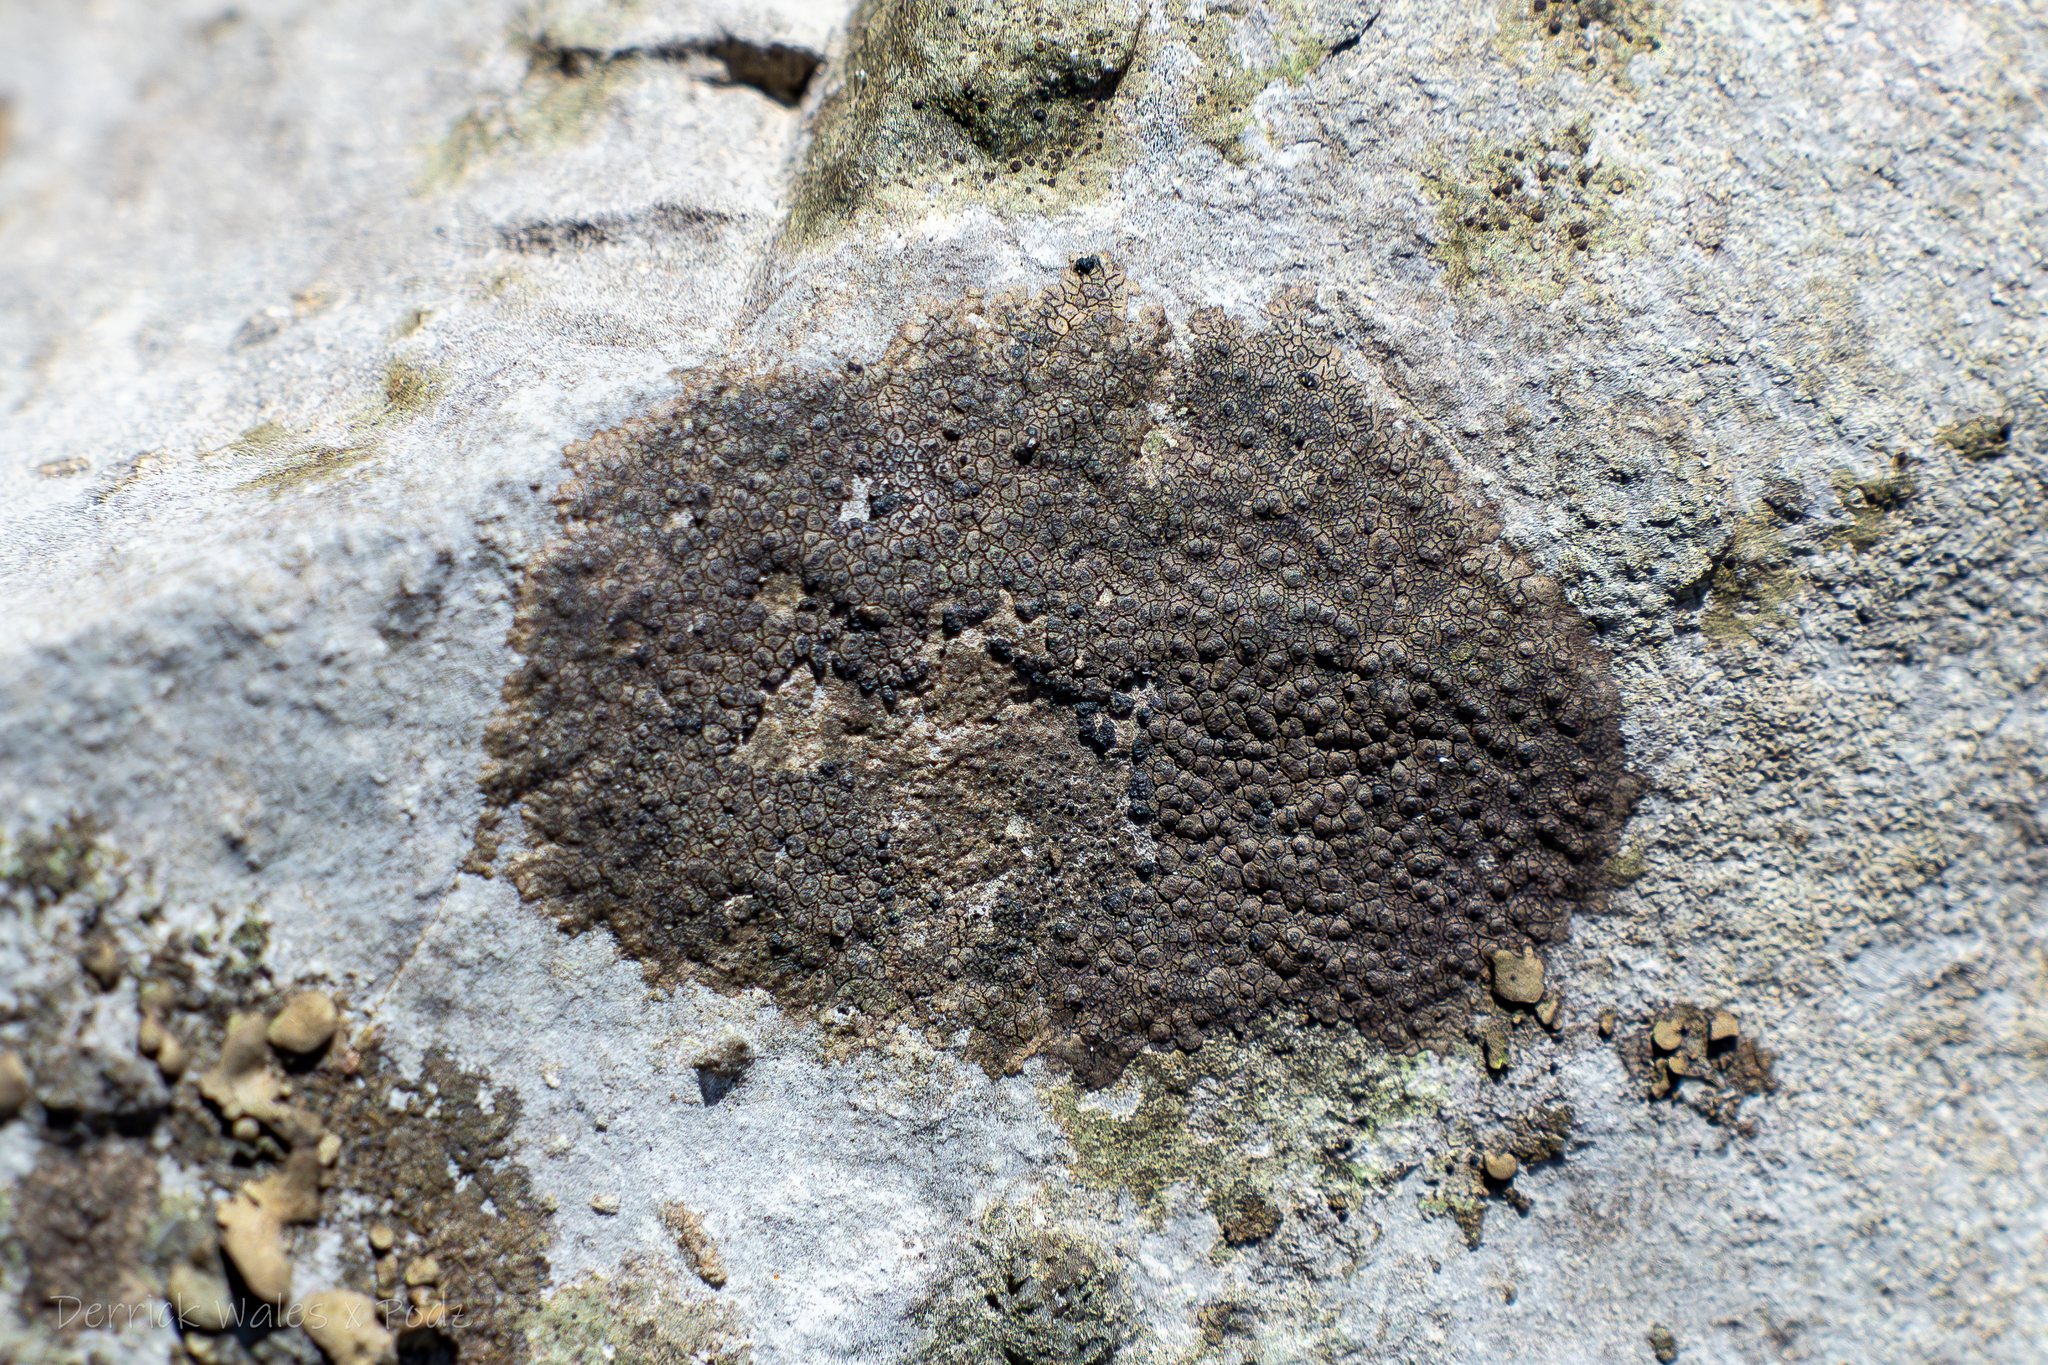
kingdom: Fungi
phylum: Ascomycota
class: Eurotiomycetes
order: Verrucariales
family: Verrucariaceae
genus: Willeya
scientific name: Willeya diffractella
